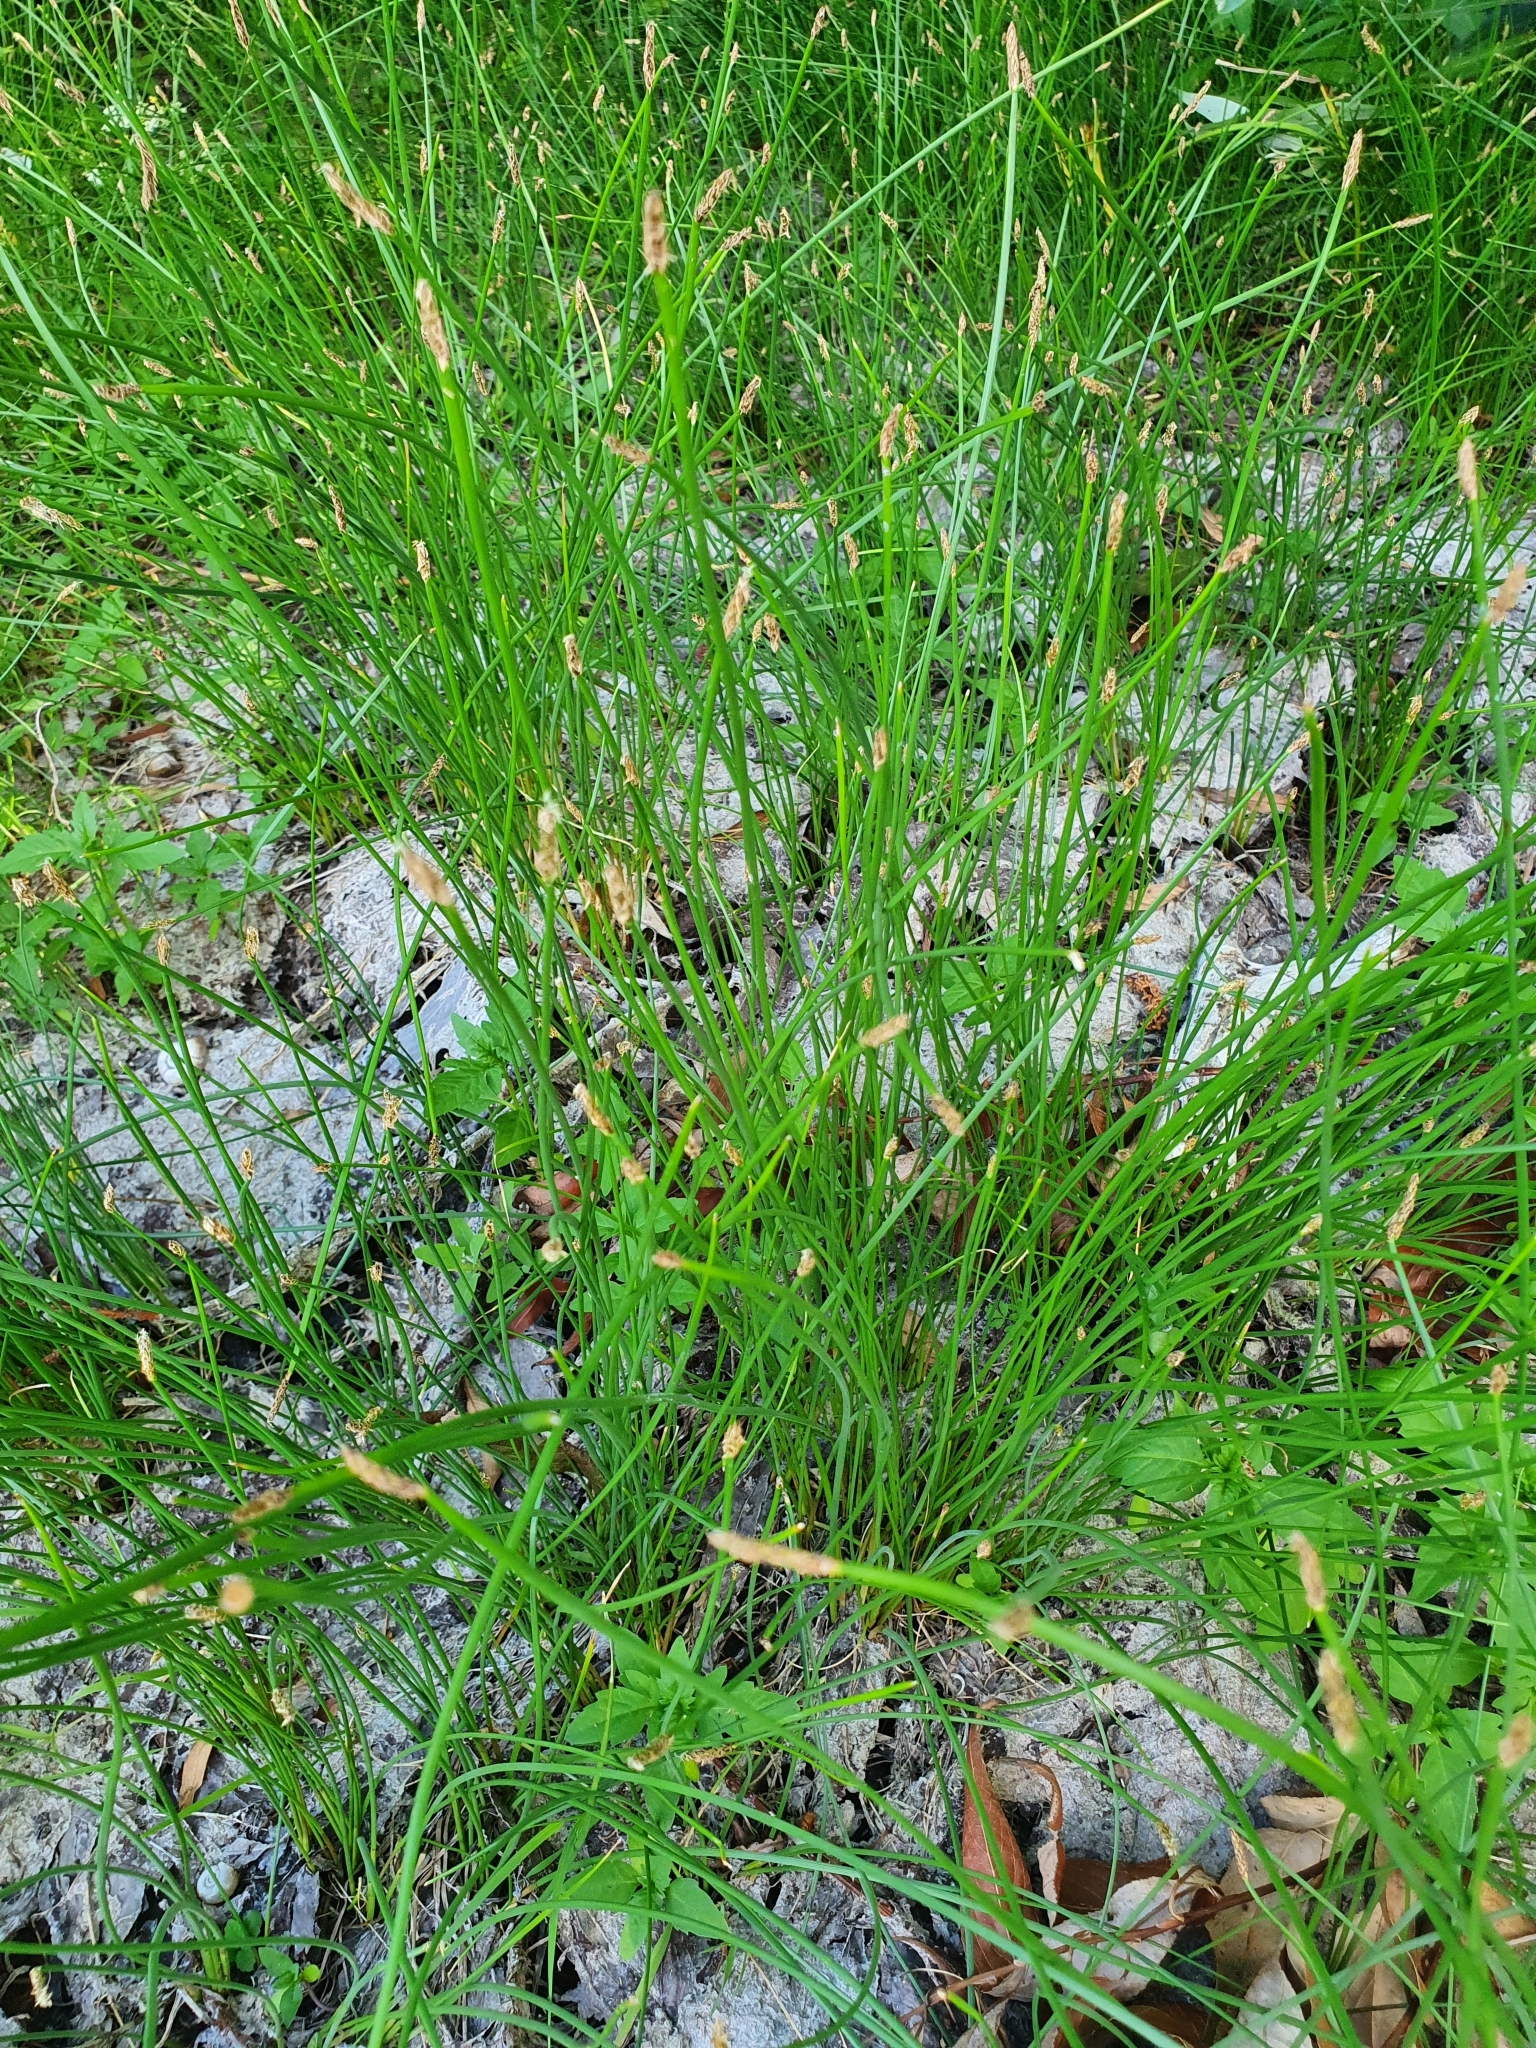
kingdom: Plantae
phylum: Tracheophyta
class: Liliopsida
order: Poales
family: Cyperaceae
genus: Eleocharis
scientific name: Eleocharis palustris
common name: Common spike-rush
